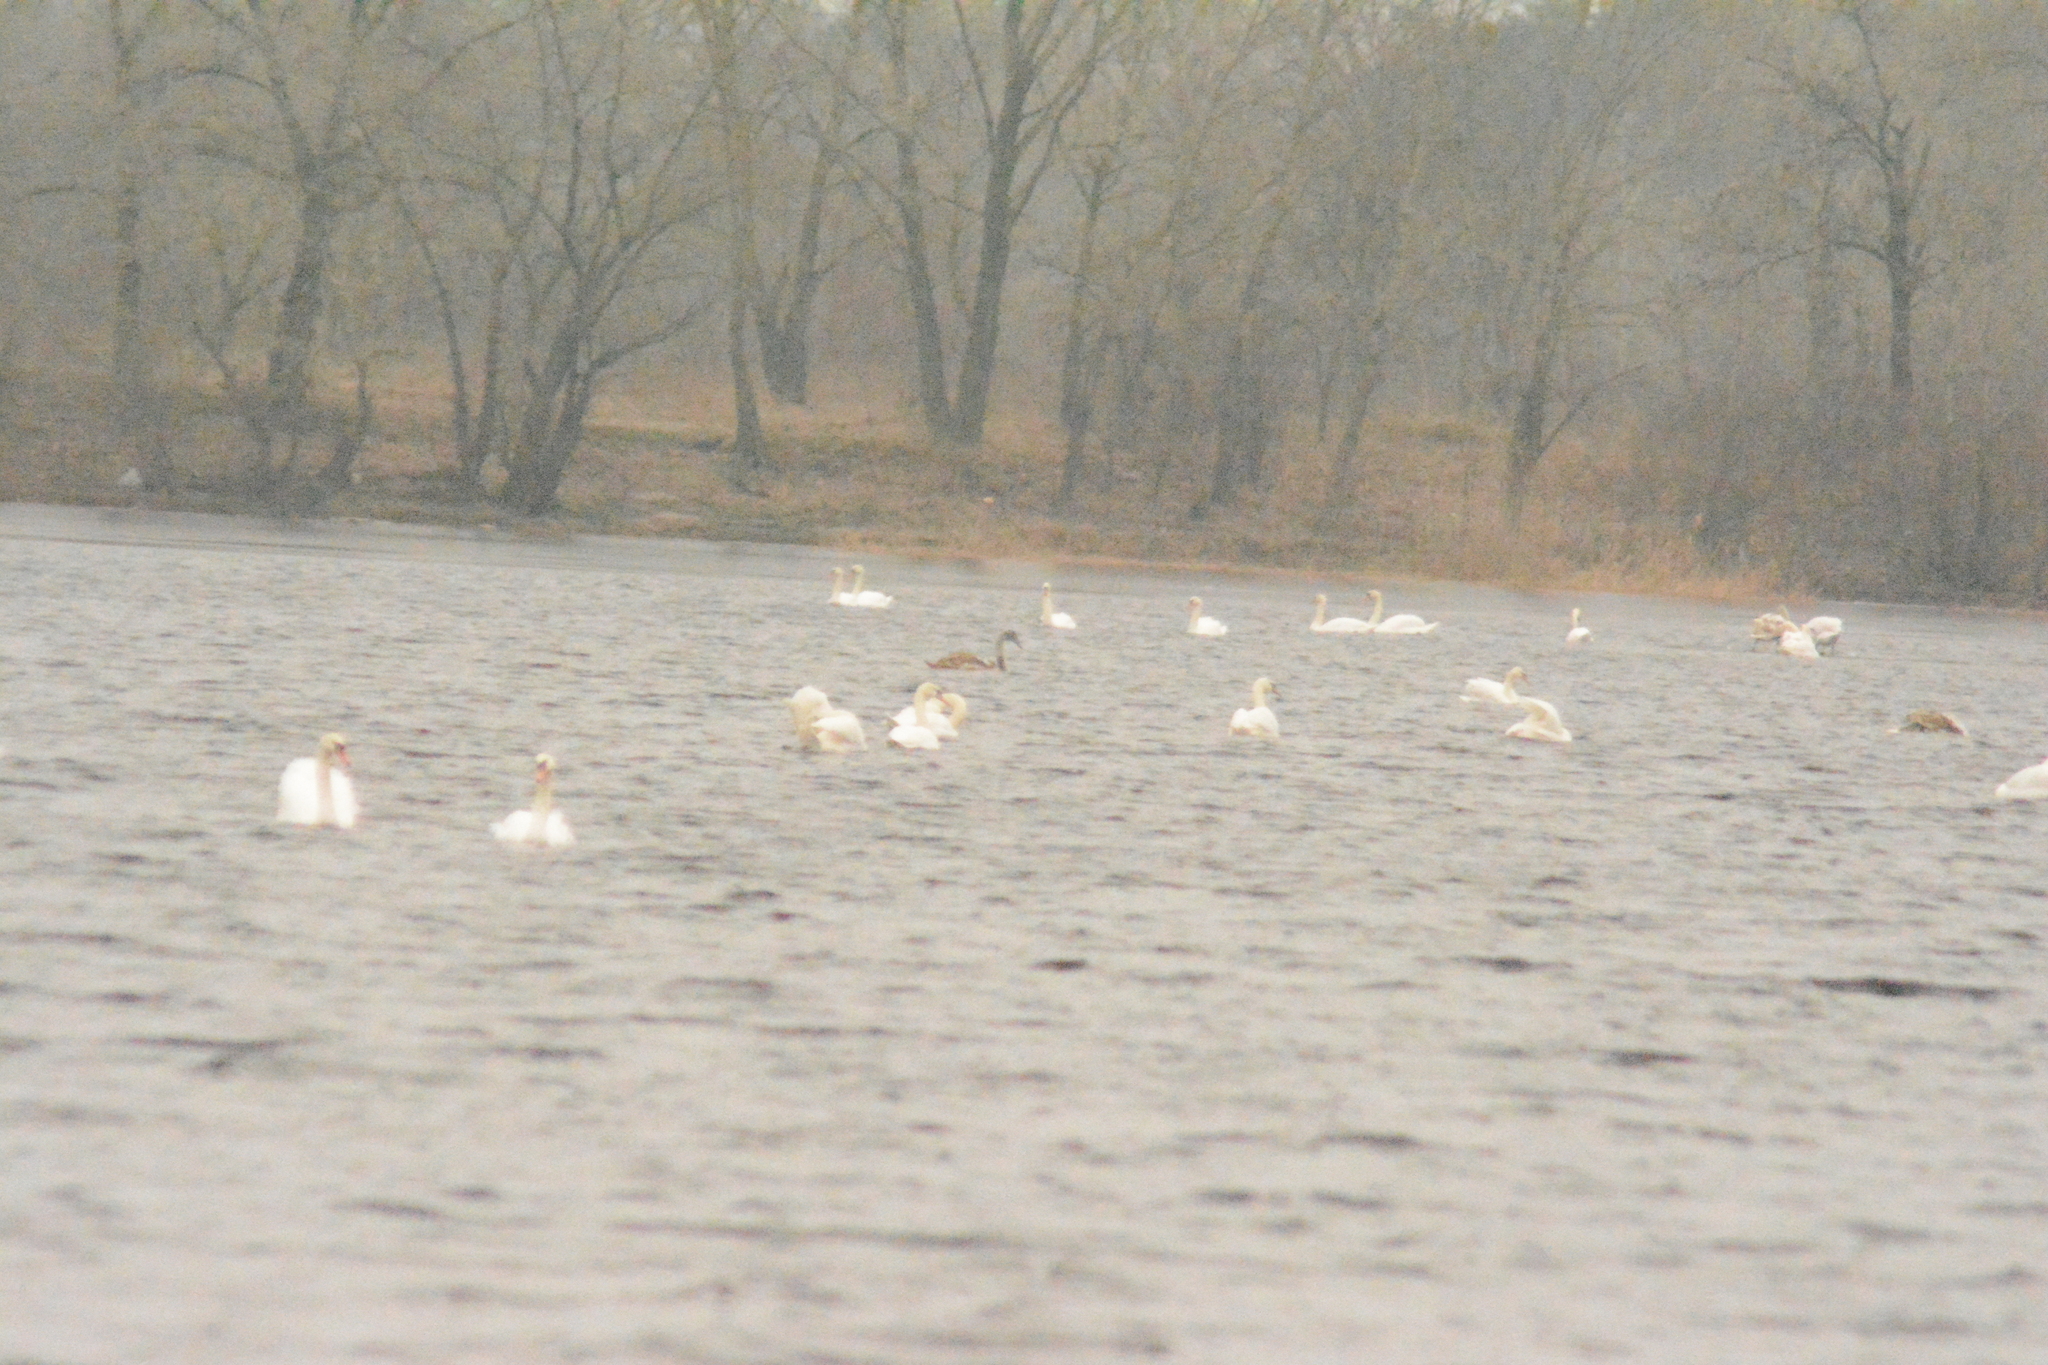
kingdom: Animalia
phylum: Chordata
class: Aves
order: Anseriformes
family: Anatidae
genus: Cygnus
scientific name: Cygnus olor
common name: Mute swan
